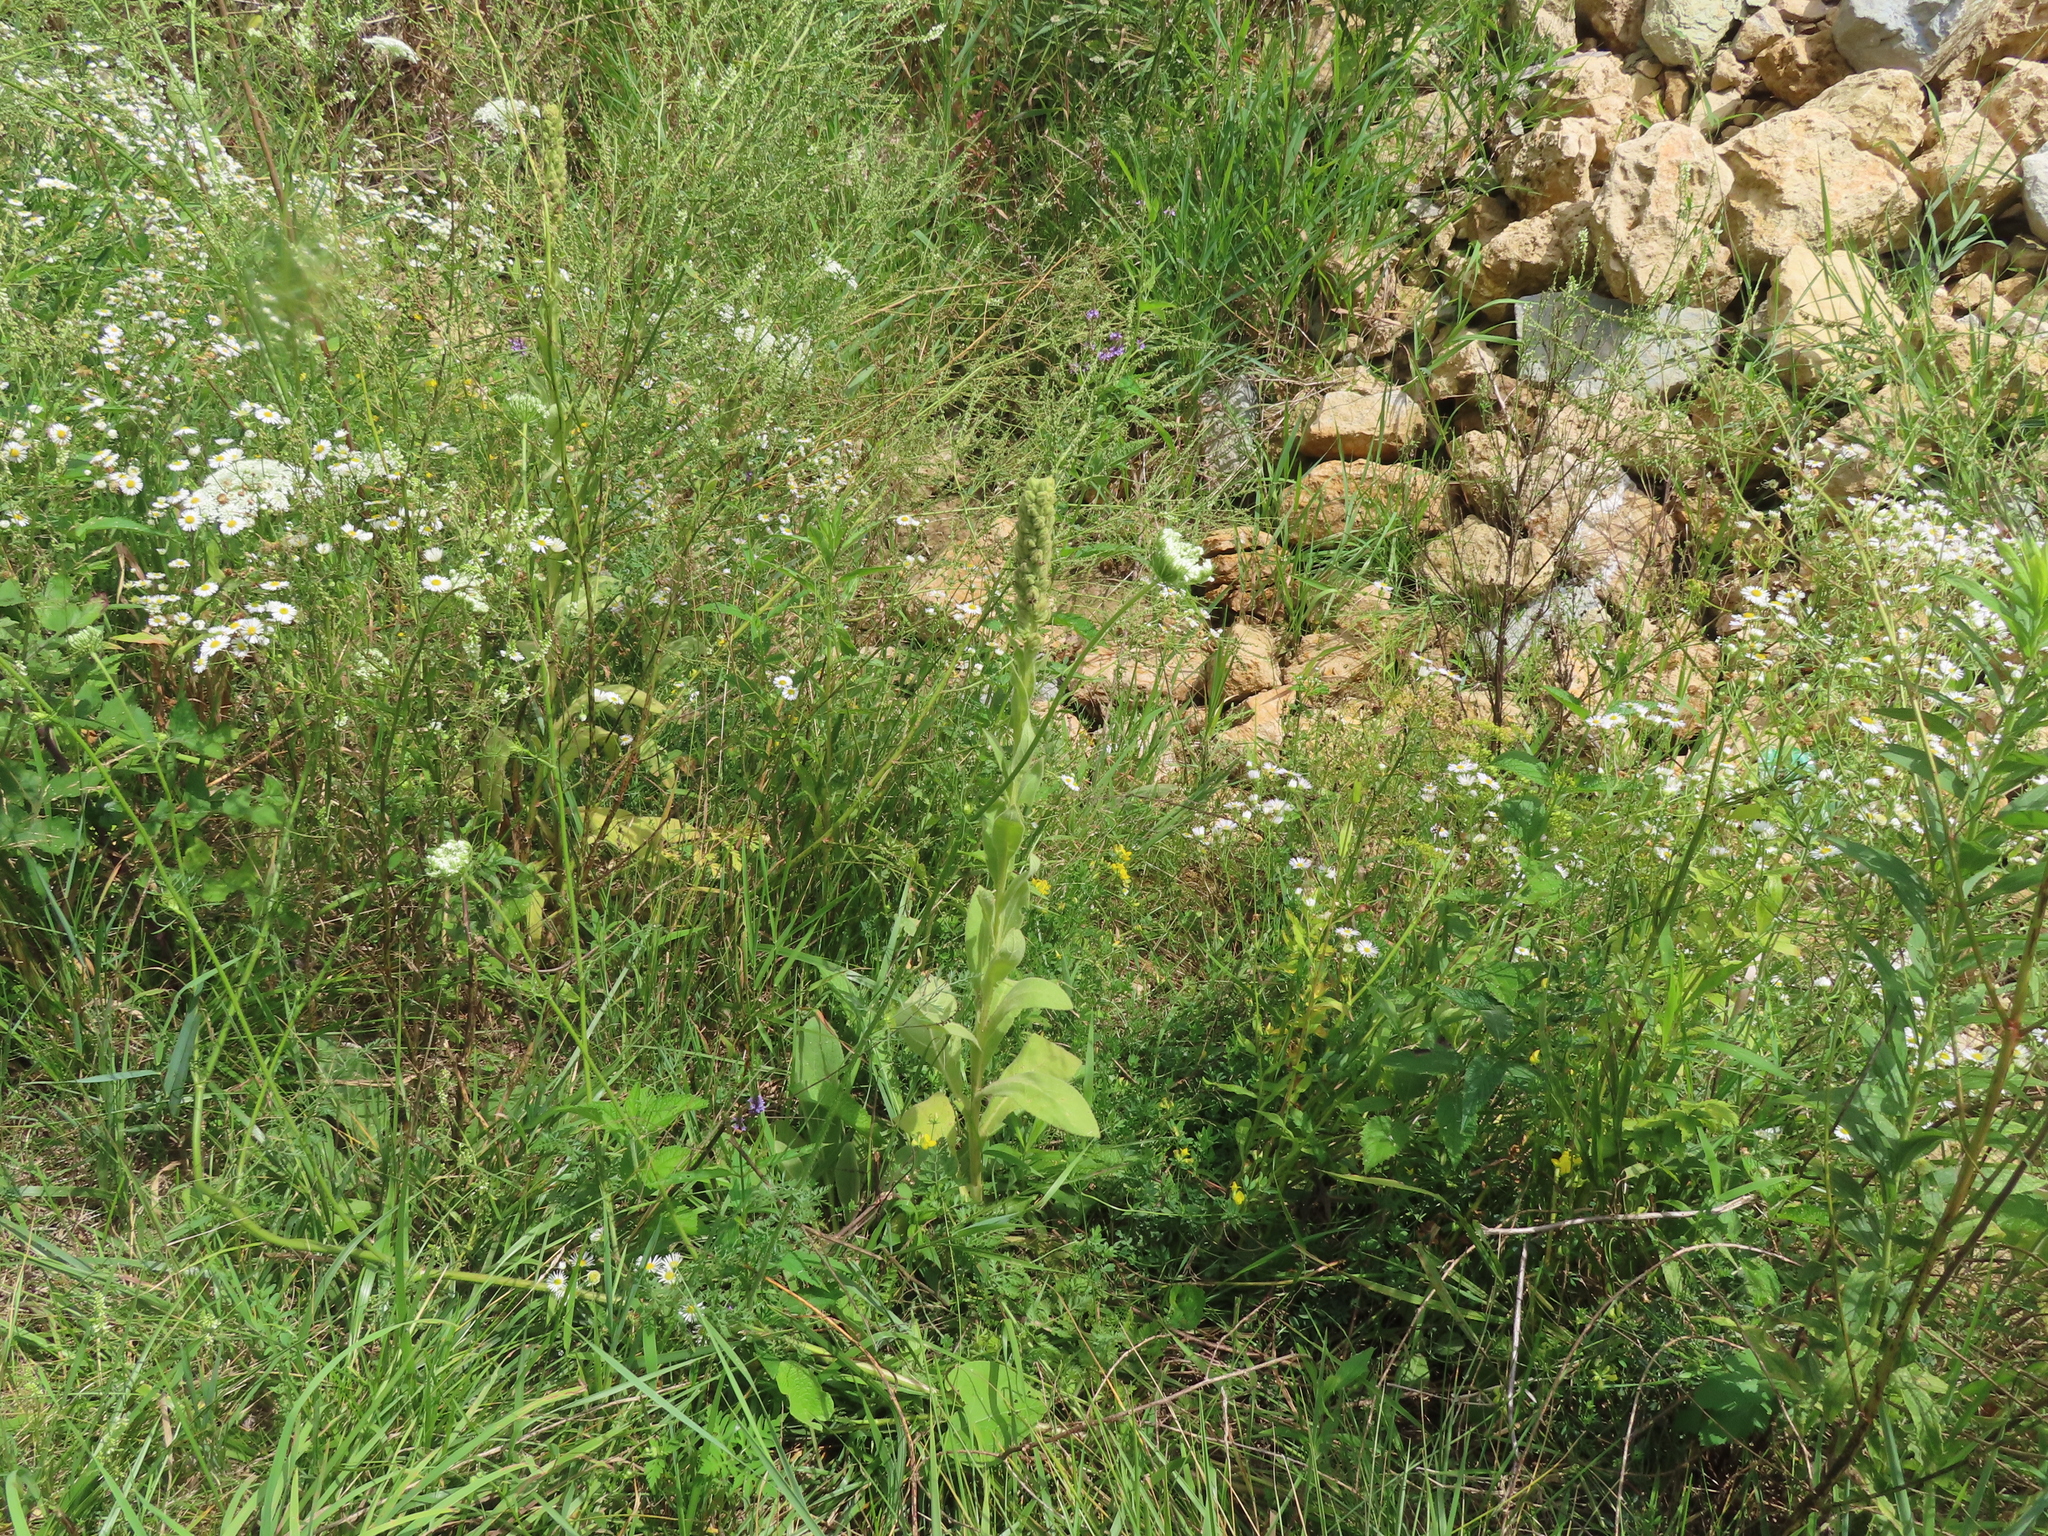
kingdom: Plantae
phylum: Tracheophyta
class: Magnoliopsida
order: Lamiales
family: Scrophulariaceae
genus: Verbascum
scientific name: Verbascum thapsus
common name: Common mullein
